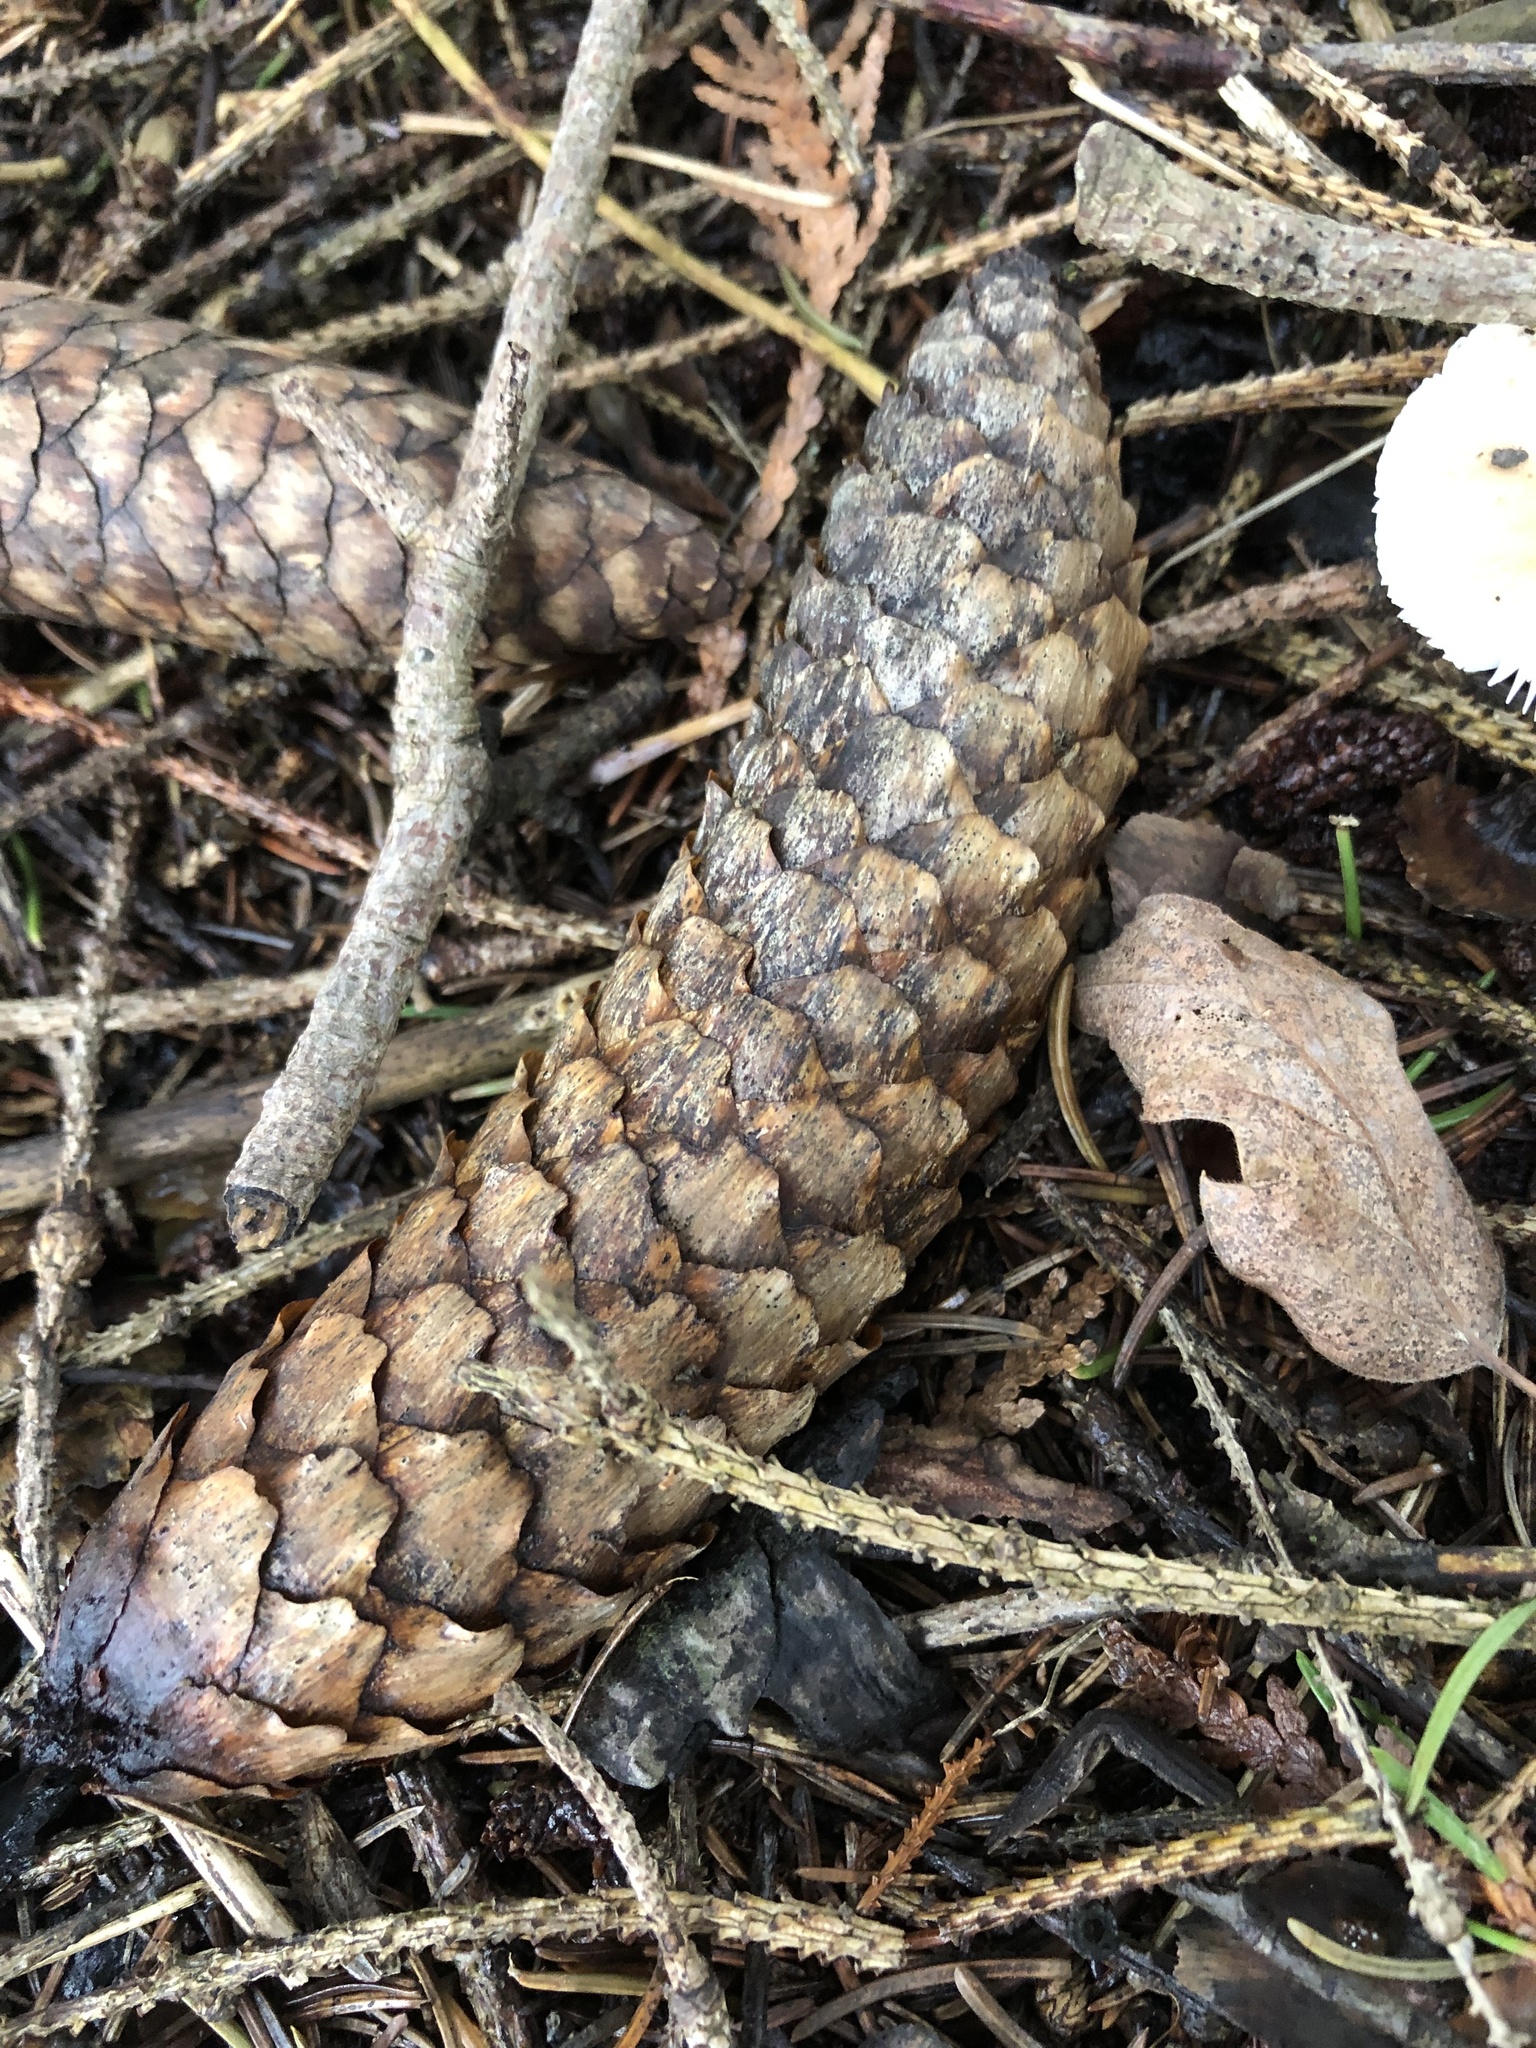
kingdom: Plantae
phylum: Tracheophyta
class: Pinopsida
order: Pinales
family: Pinaceae
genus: Picea
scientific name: Picea abies
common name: Norway spruce
